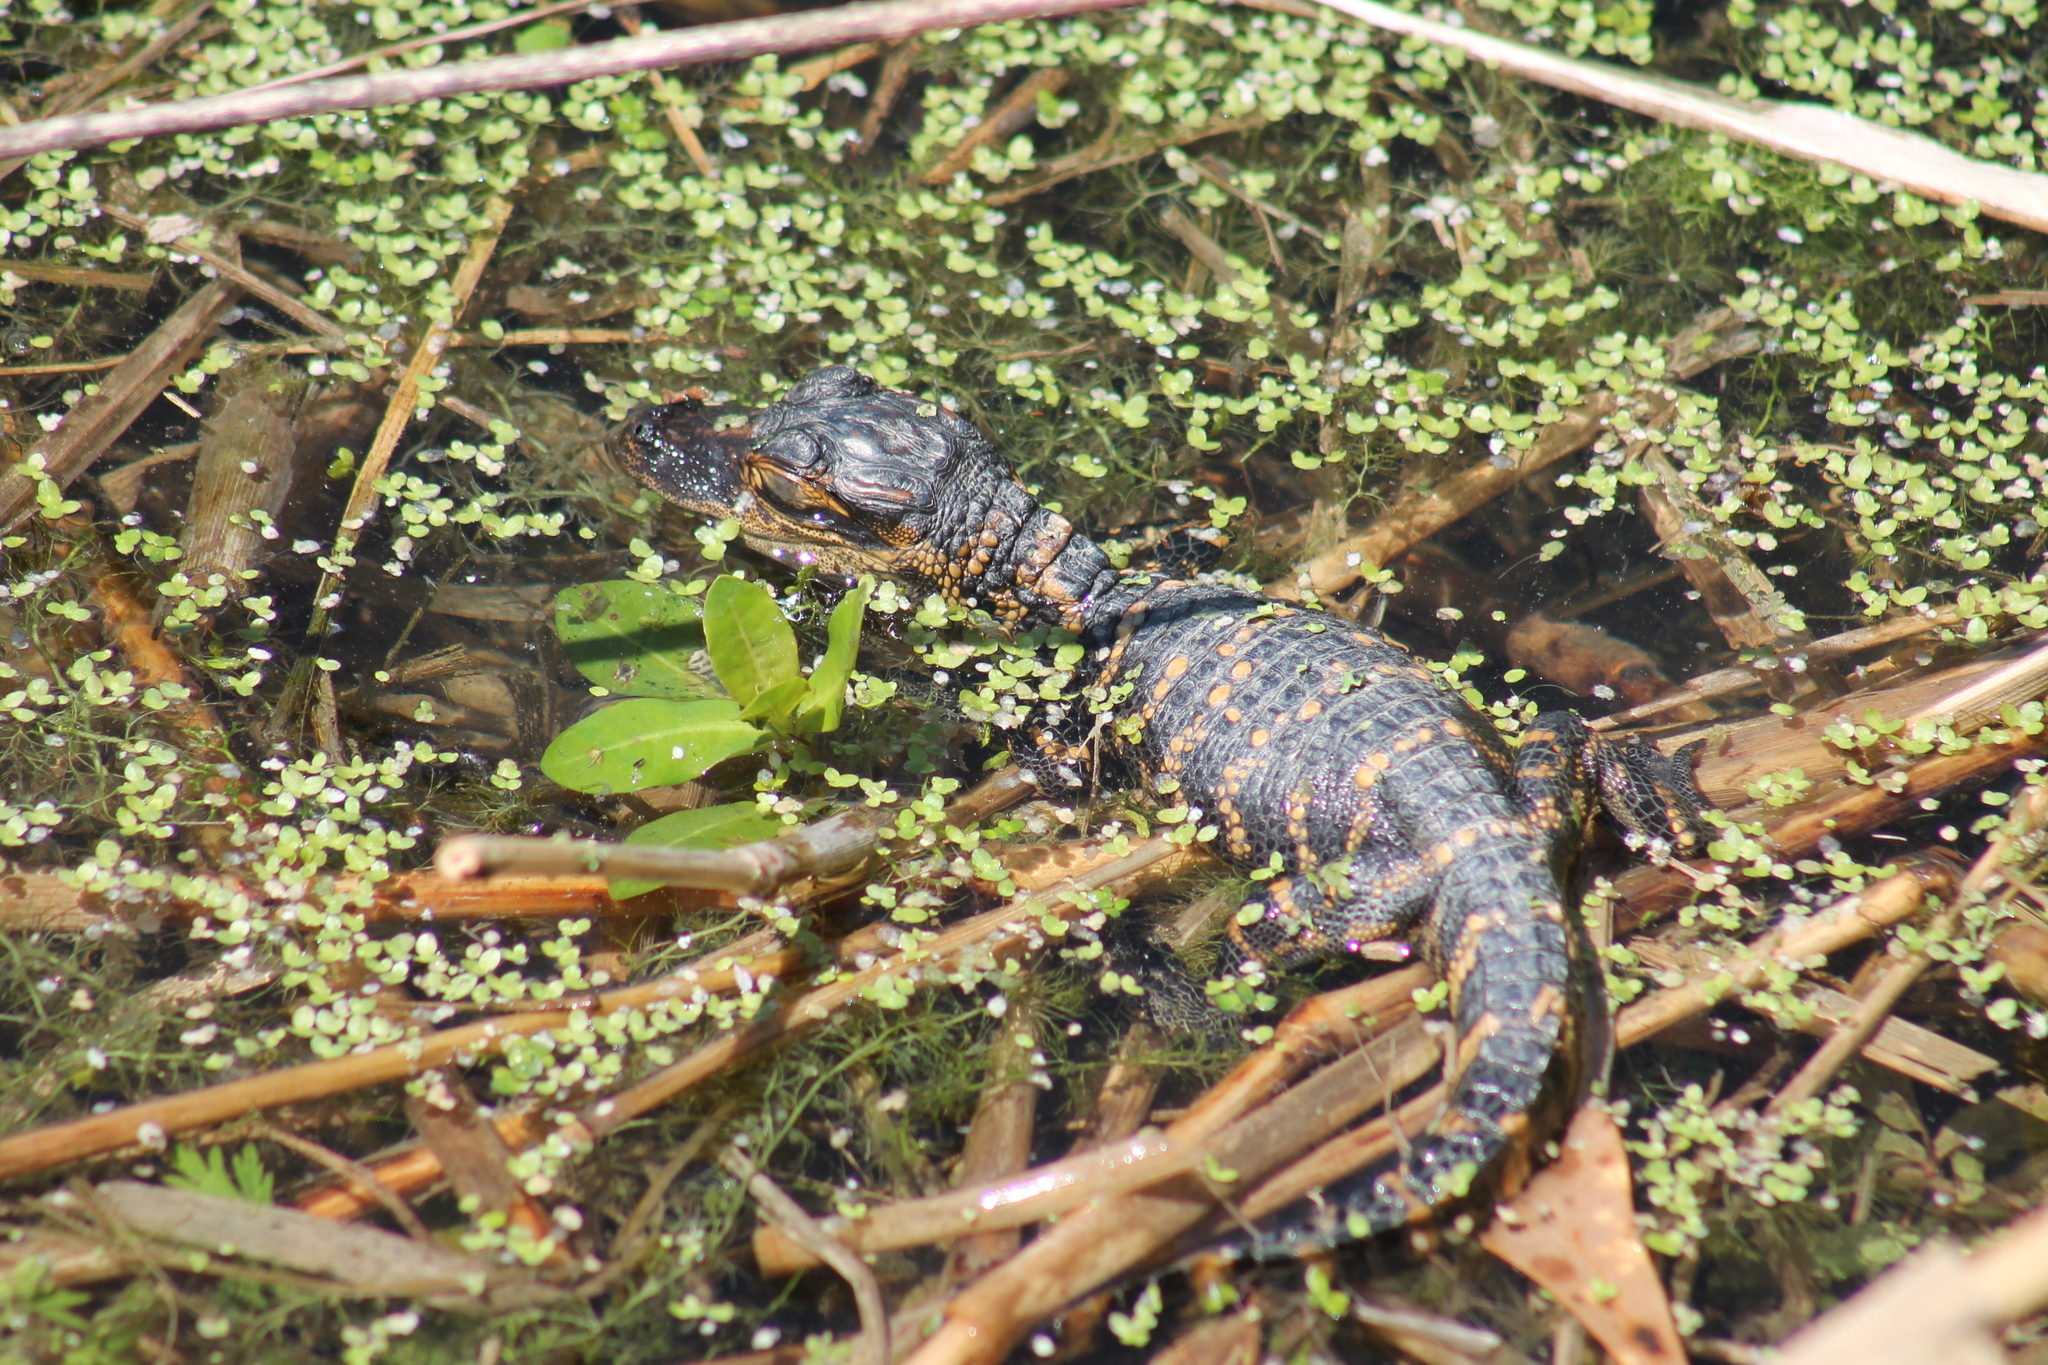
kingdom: Animalia
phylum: Chordata
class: Crocodylia
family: Alligatoridae
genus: Alligator
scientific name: Alligator mississippiensis
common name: American alligator
